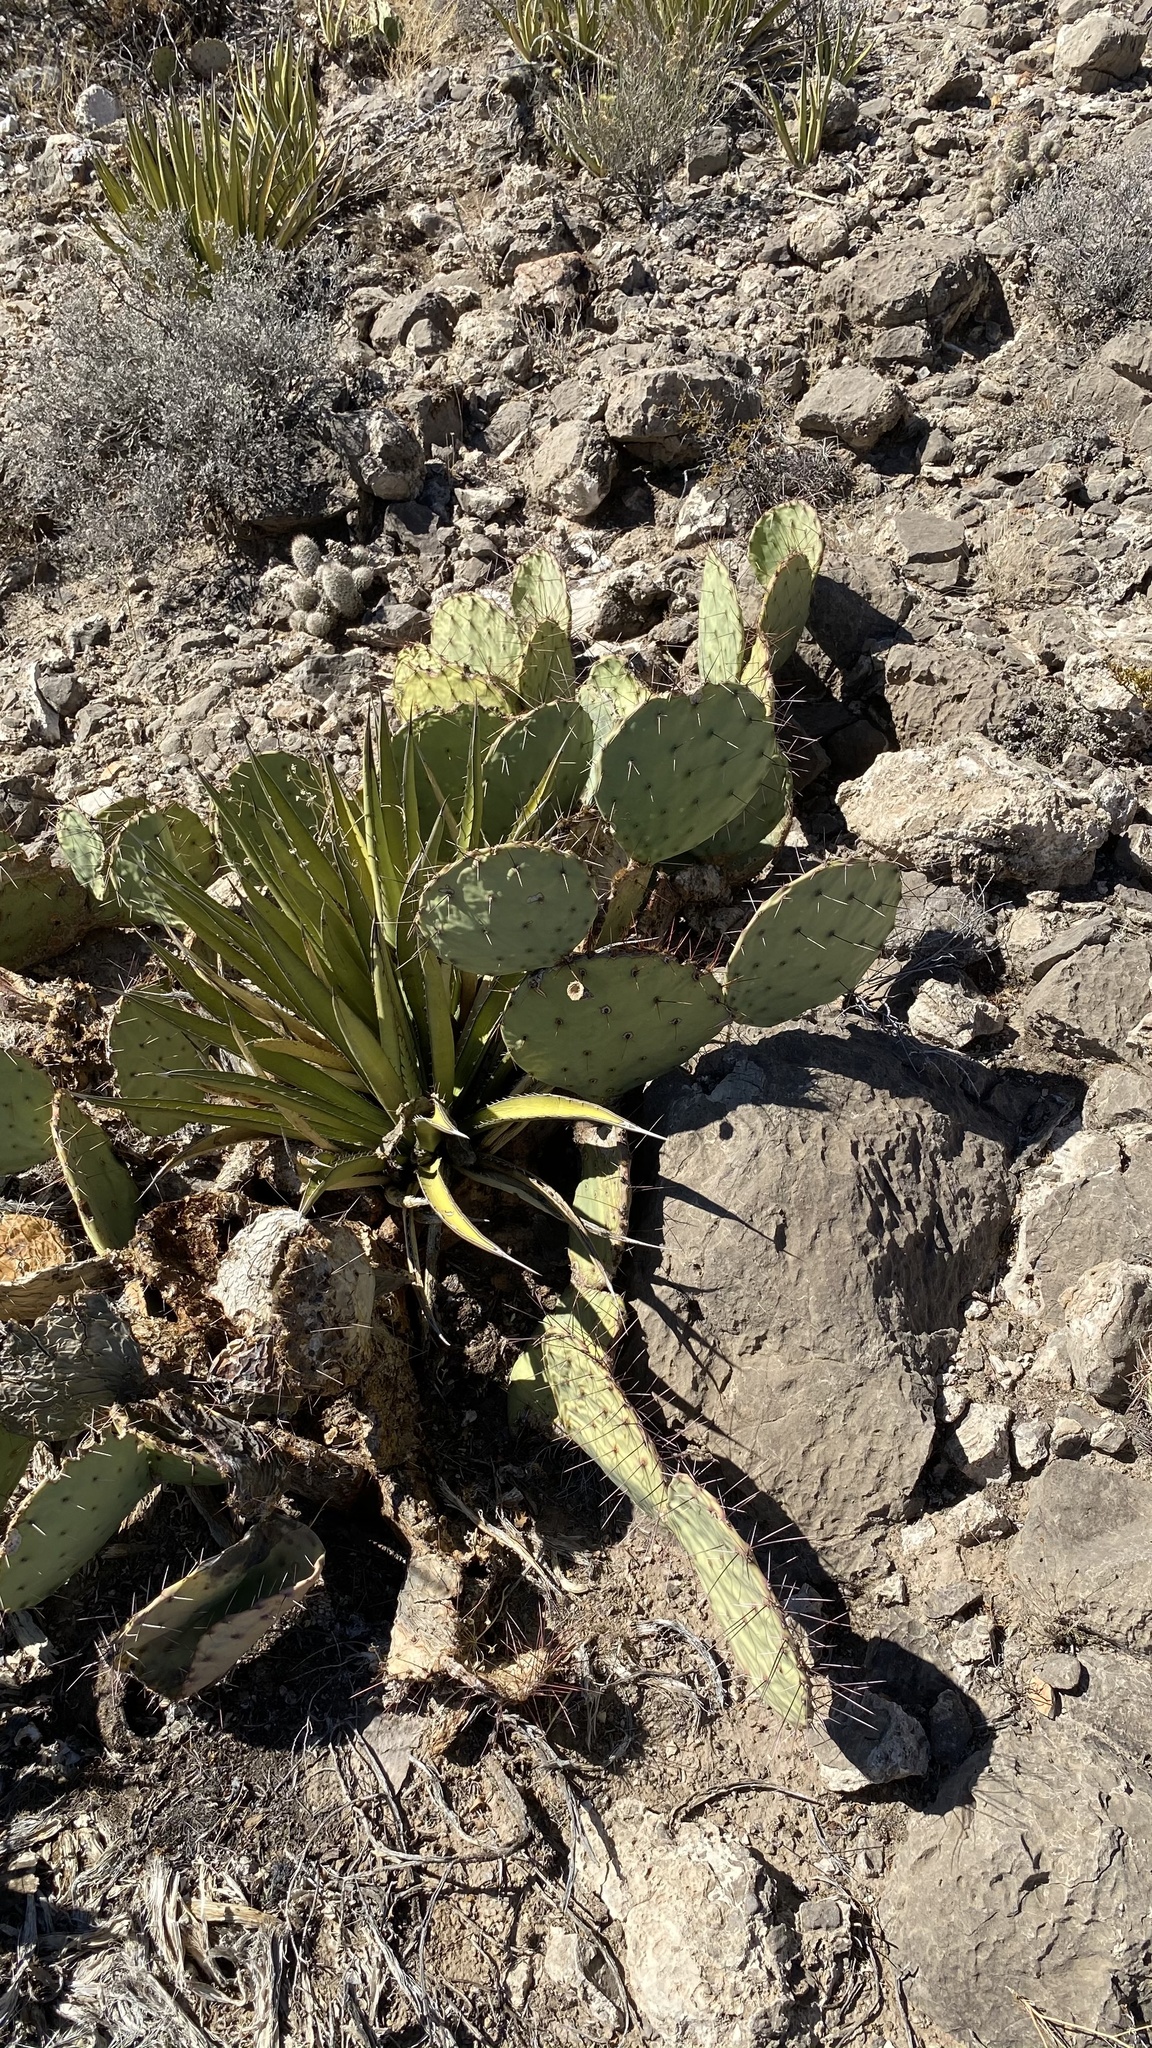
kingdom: Plantae
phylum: Tracheophyta
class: Magnoliopsida
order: Caryophyllales
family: Cactaceae
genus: Opuntia
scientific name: Opuntia phaeacantha
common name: New mexico prickly-pear
